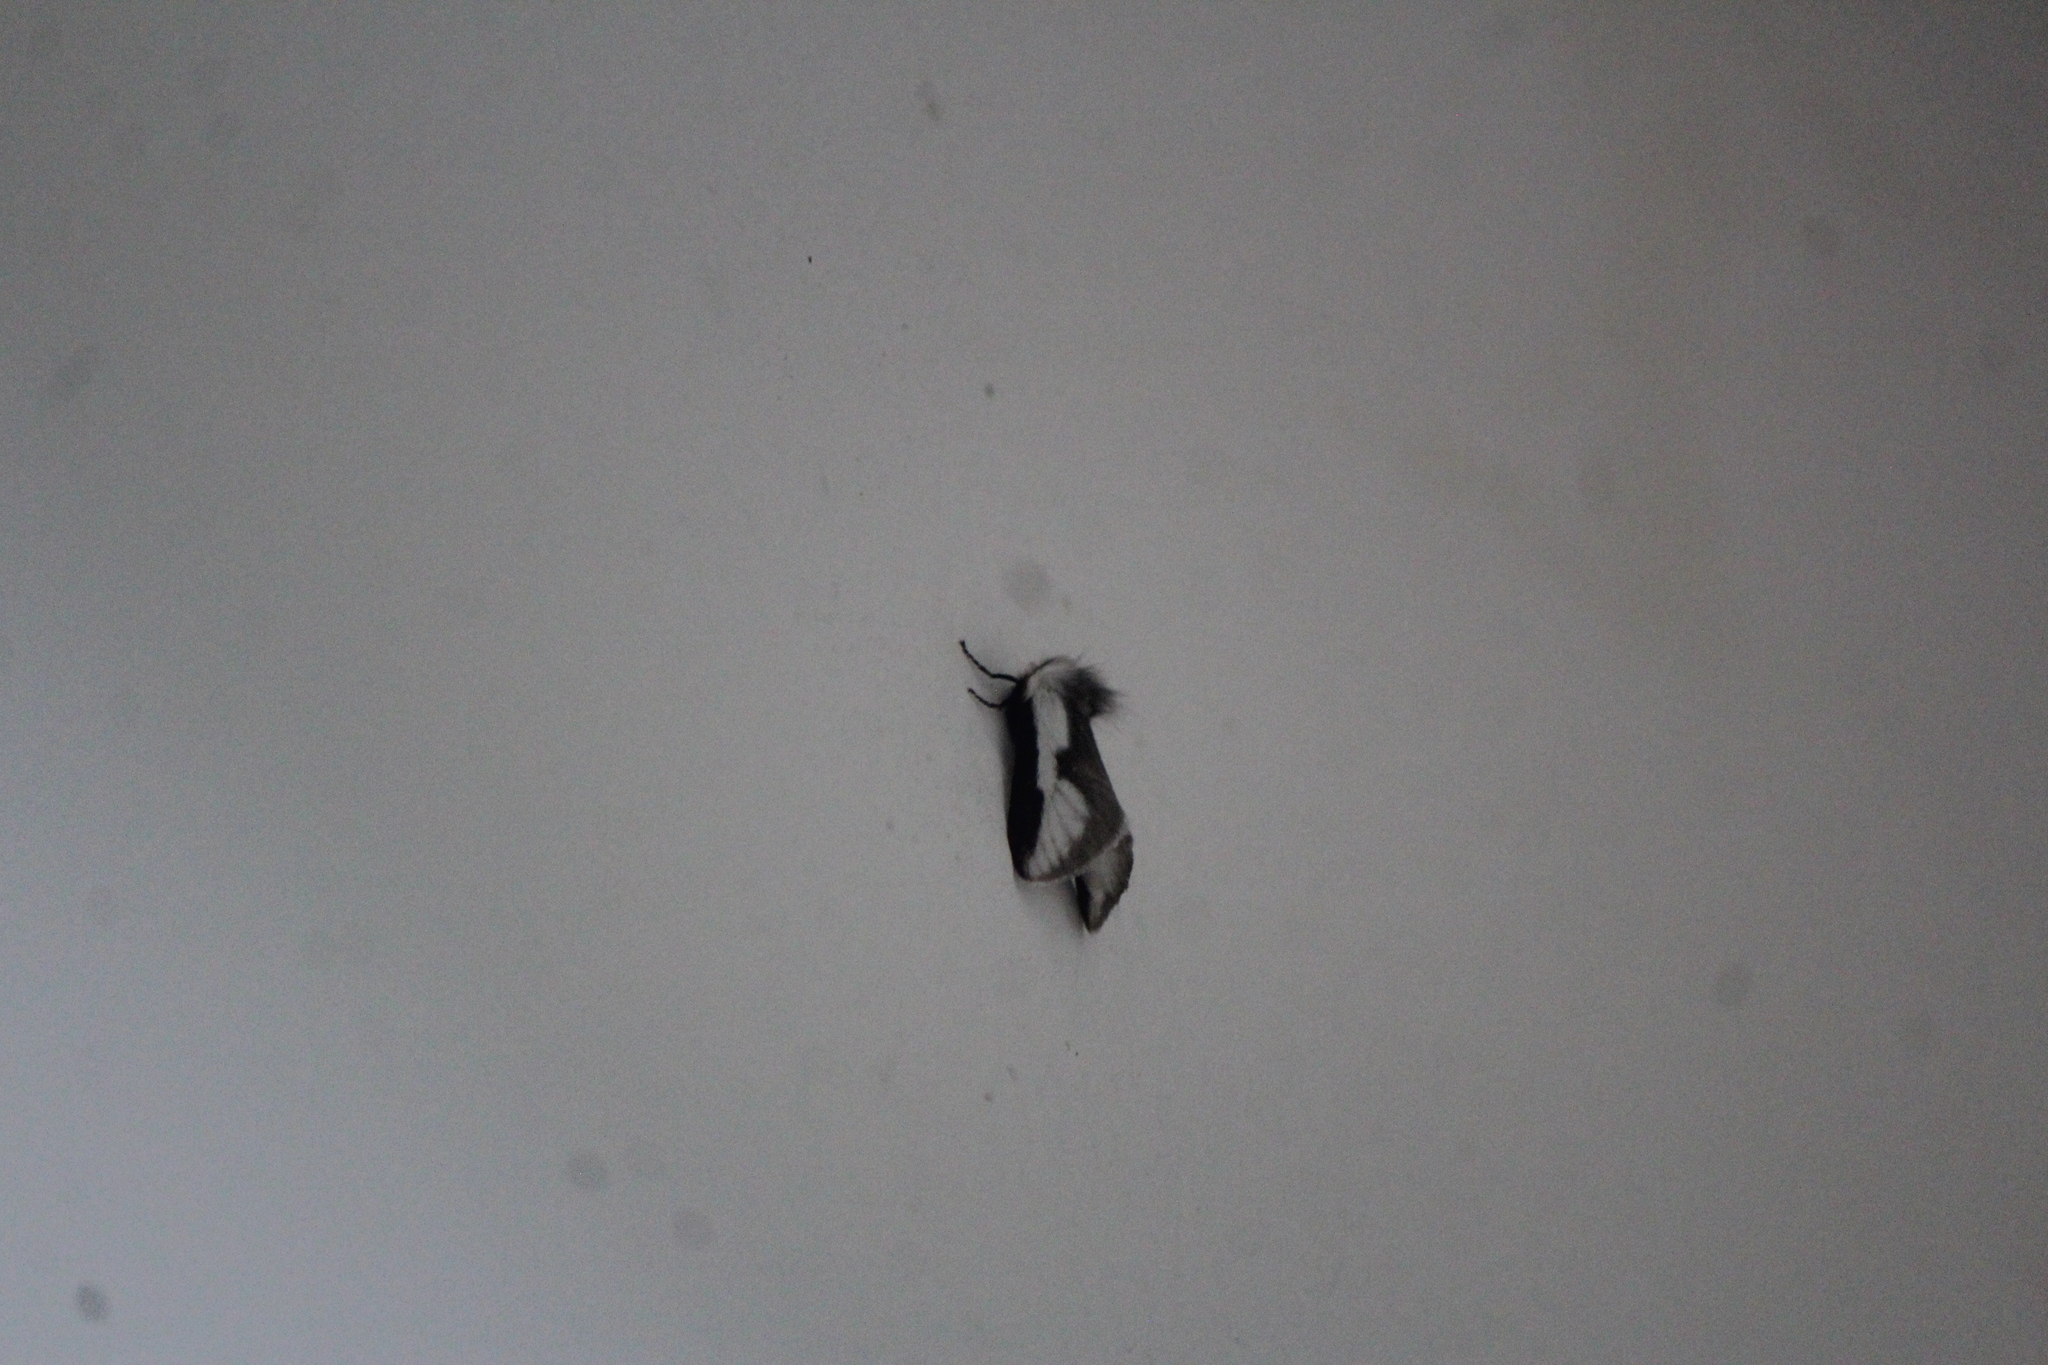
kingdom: Animalia
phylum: Arthropoda
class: Insecta
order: Lepidoptera
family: Megalopygidae
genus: Norape
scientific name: Norape tener
